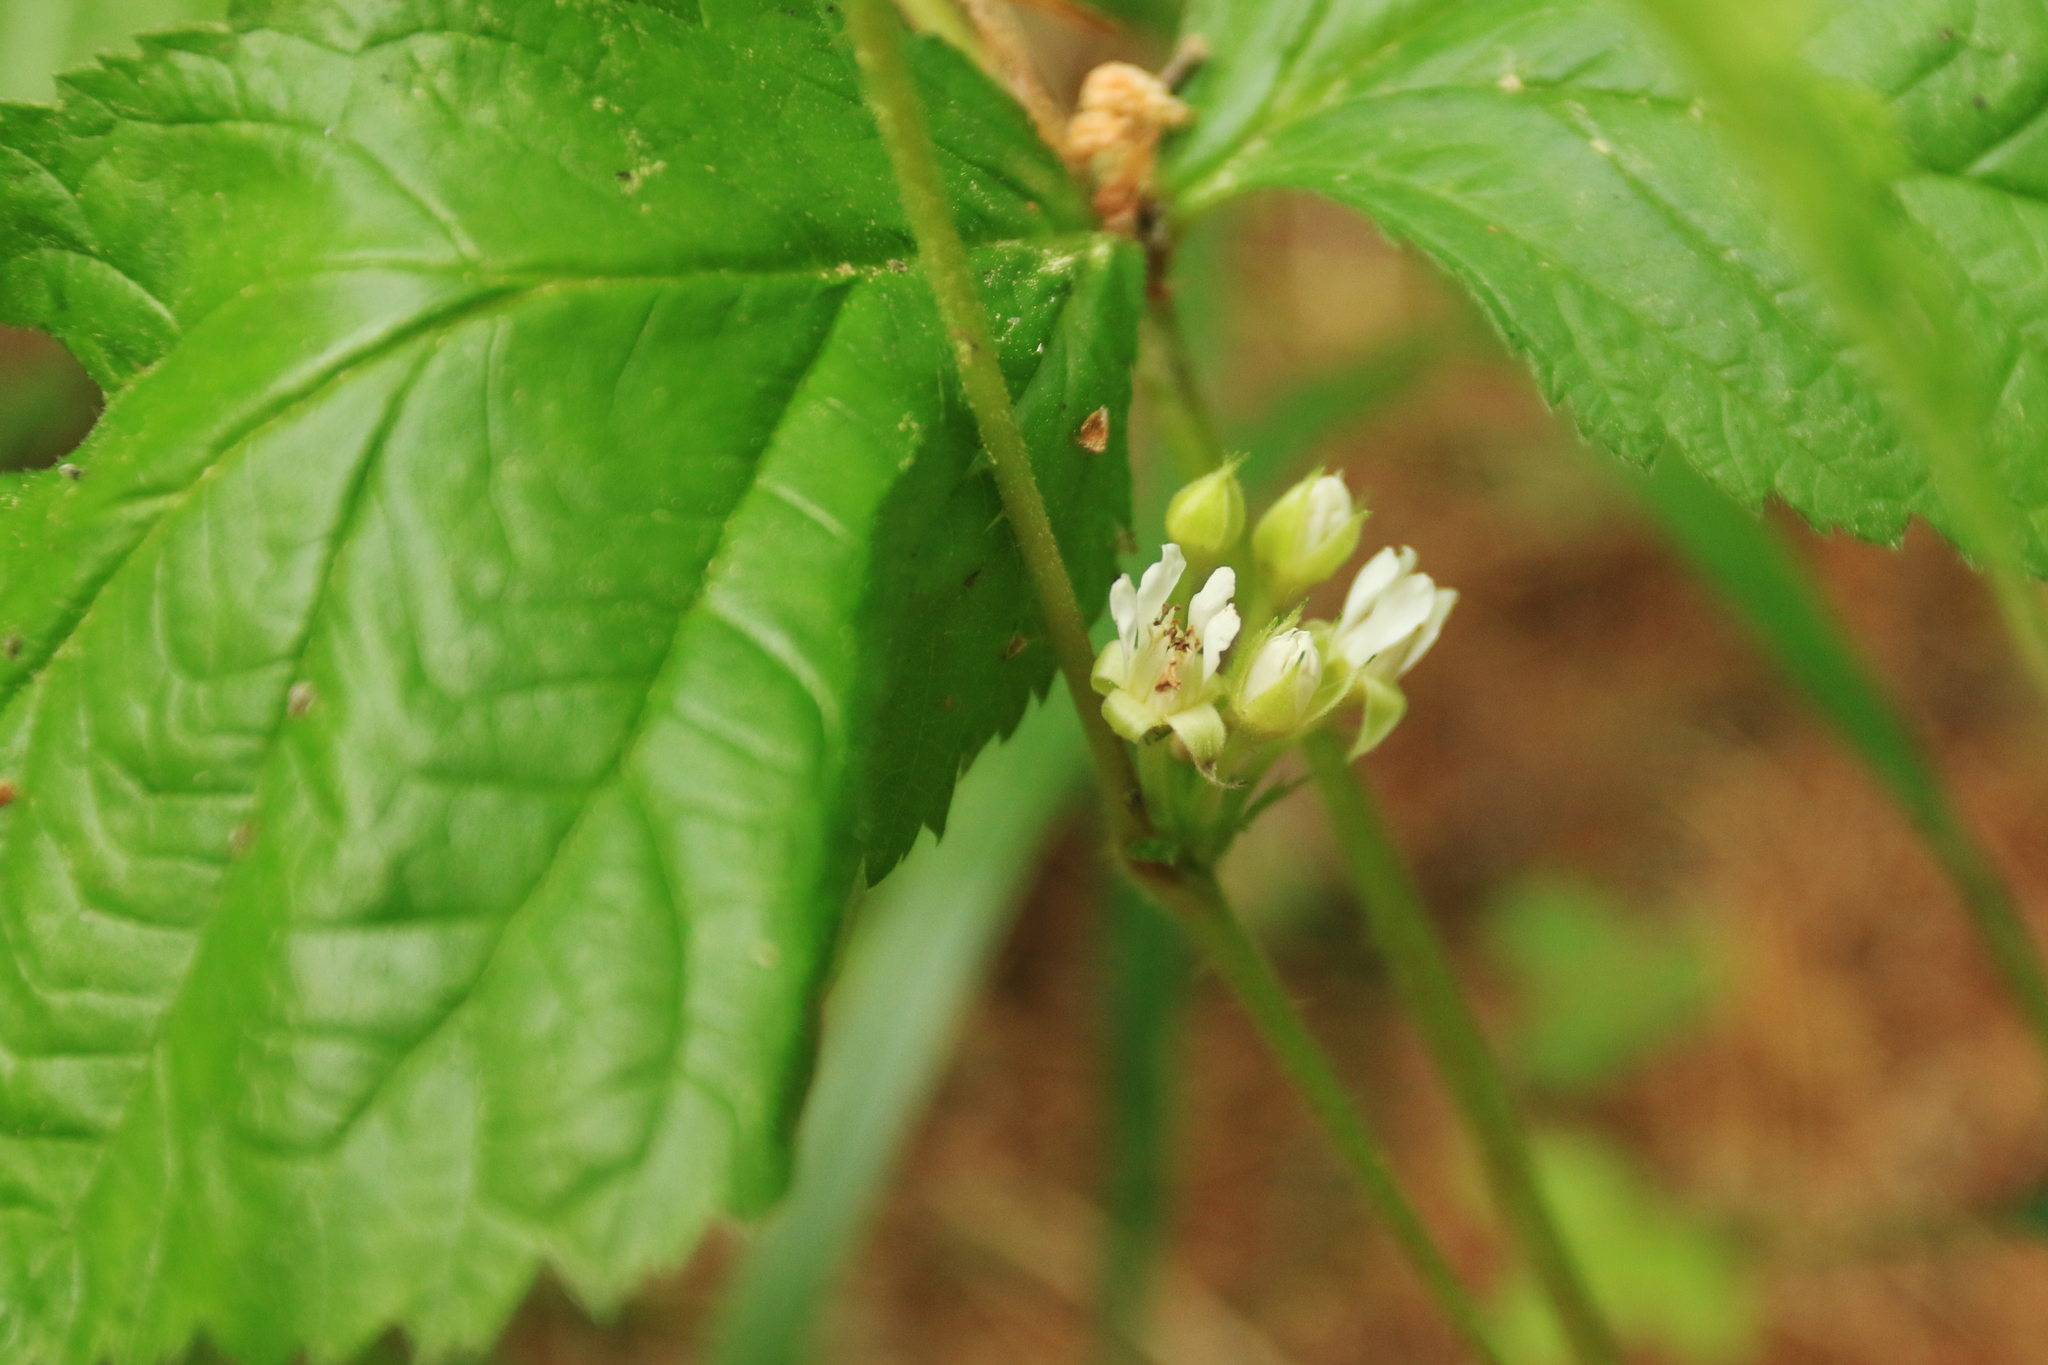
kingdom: Plantae
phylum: Tracheophyta
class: Magnoliopsida
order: Rosales
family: Rosaceae
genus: Rubus
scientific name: Rubus saxatilis
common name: Stone bramble
